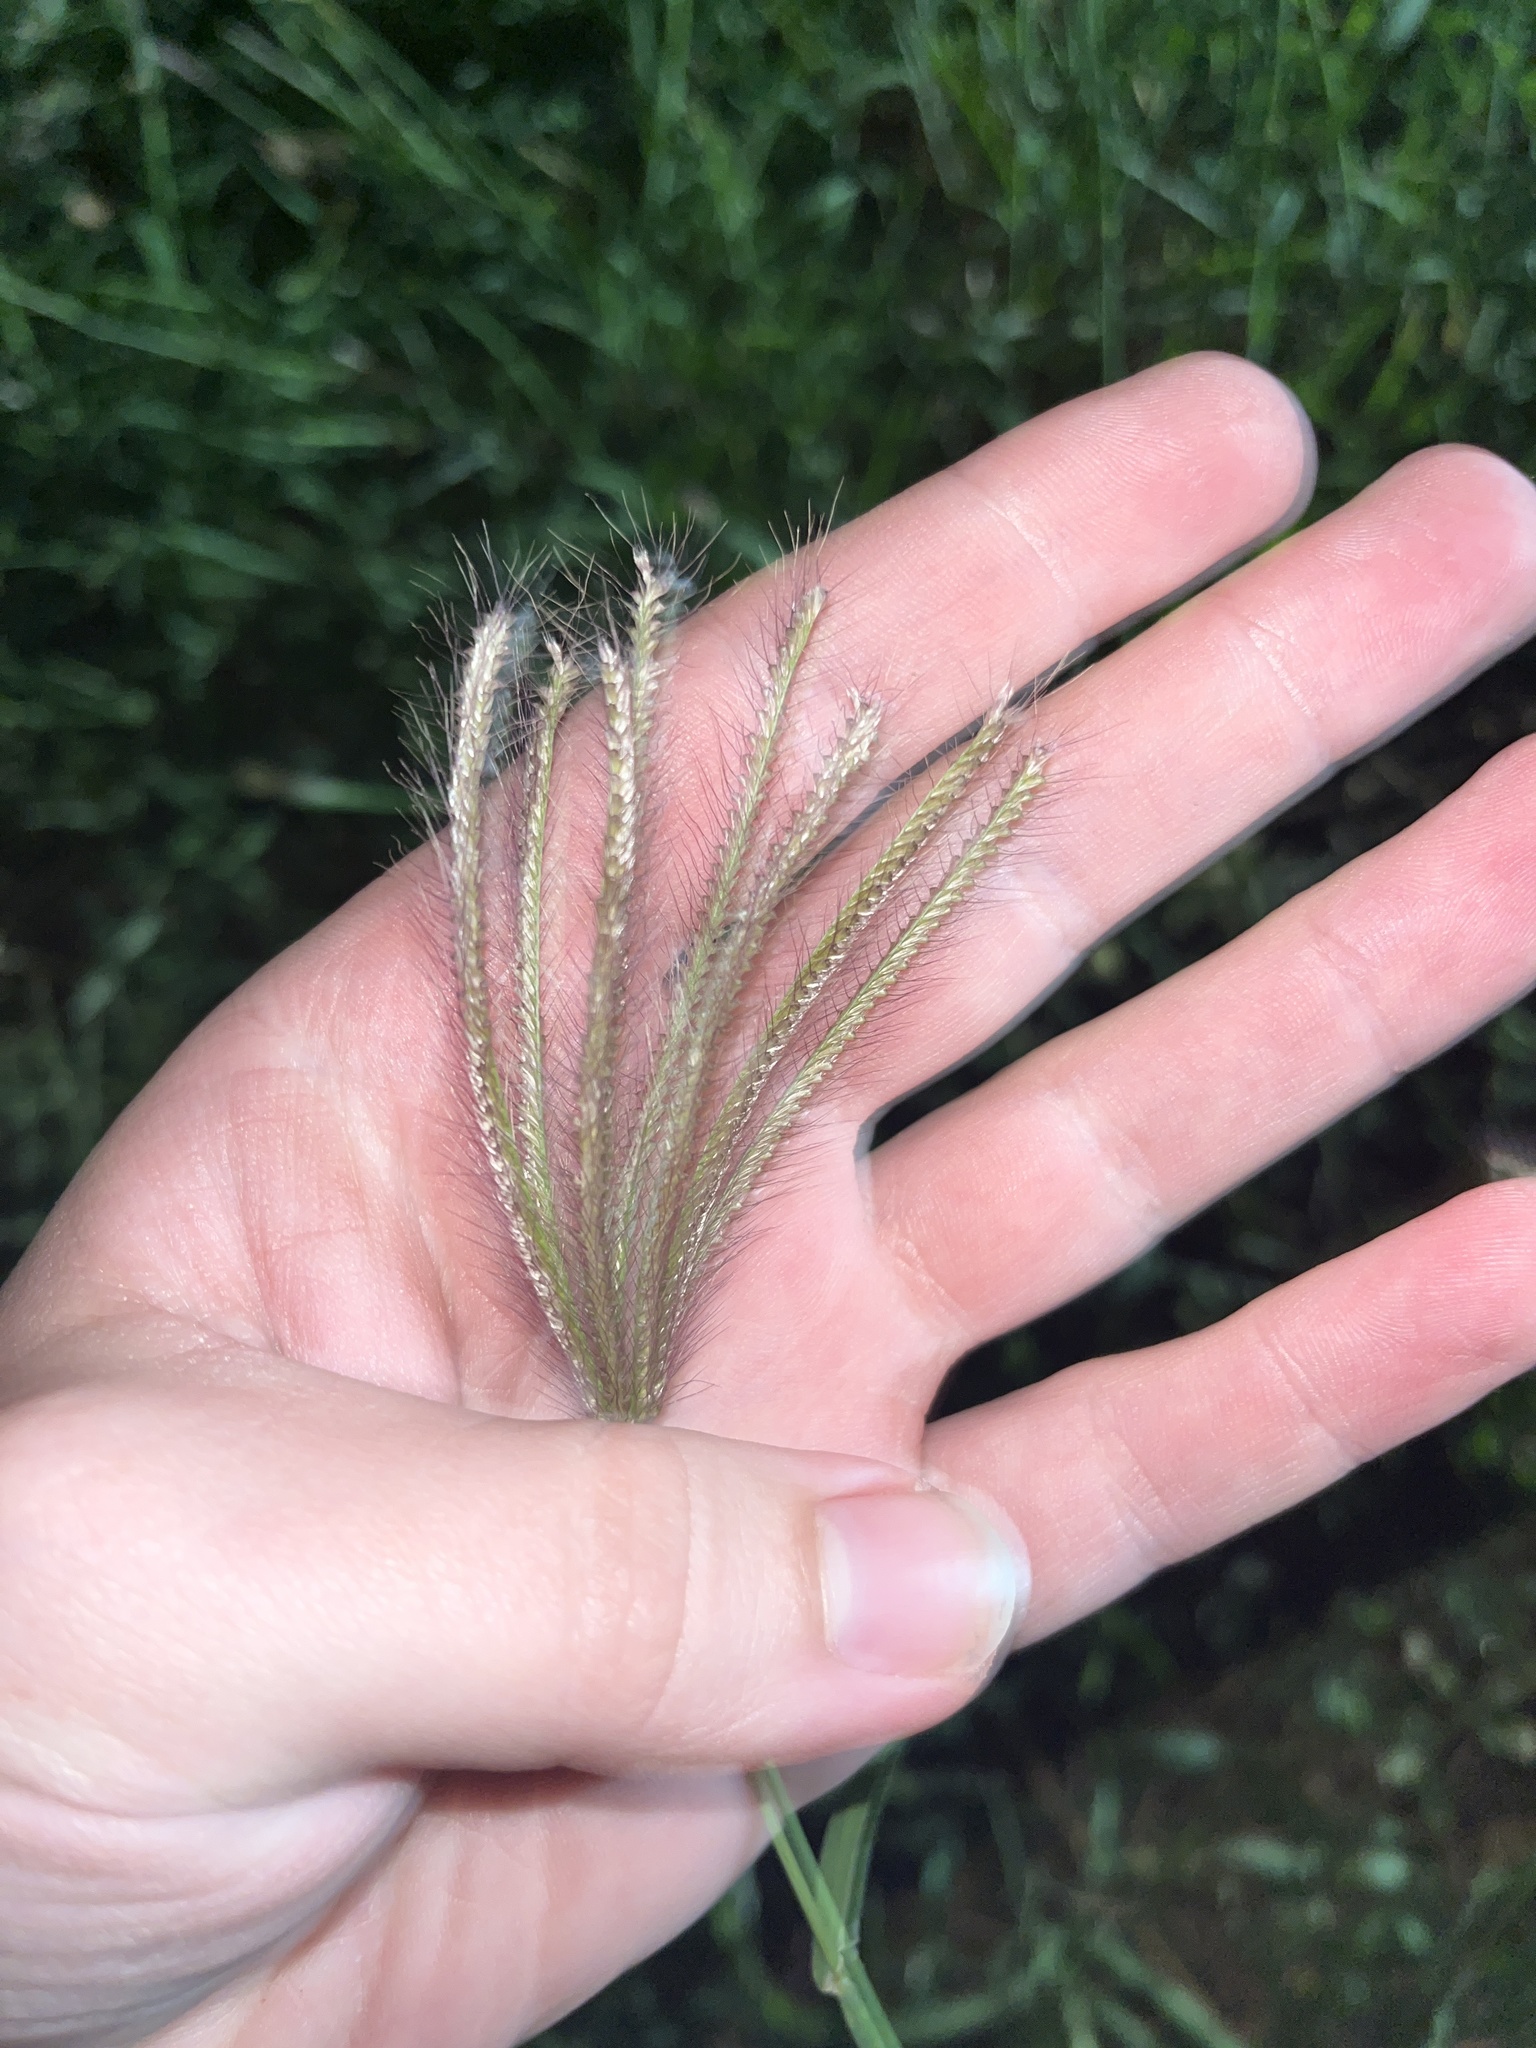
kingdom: Plantae
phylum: Tracheophyta
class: Liliopsida
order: Poales
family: Poaceae
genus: Chloris
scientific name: Chloris barbata
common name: Swollen fingergrass
